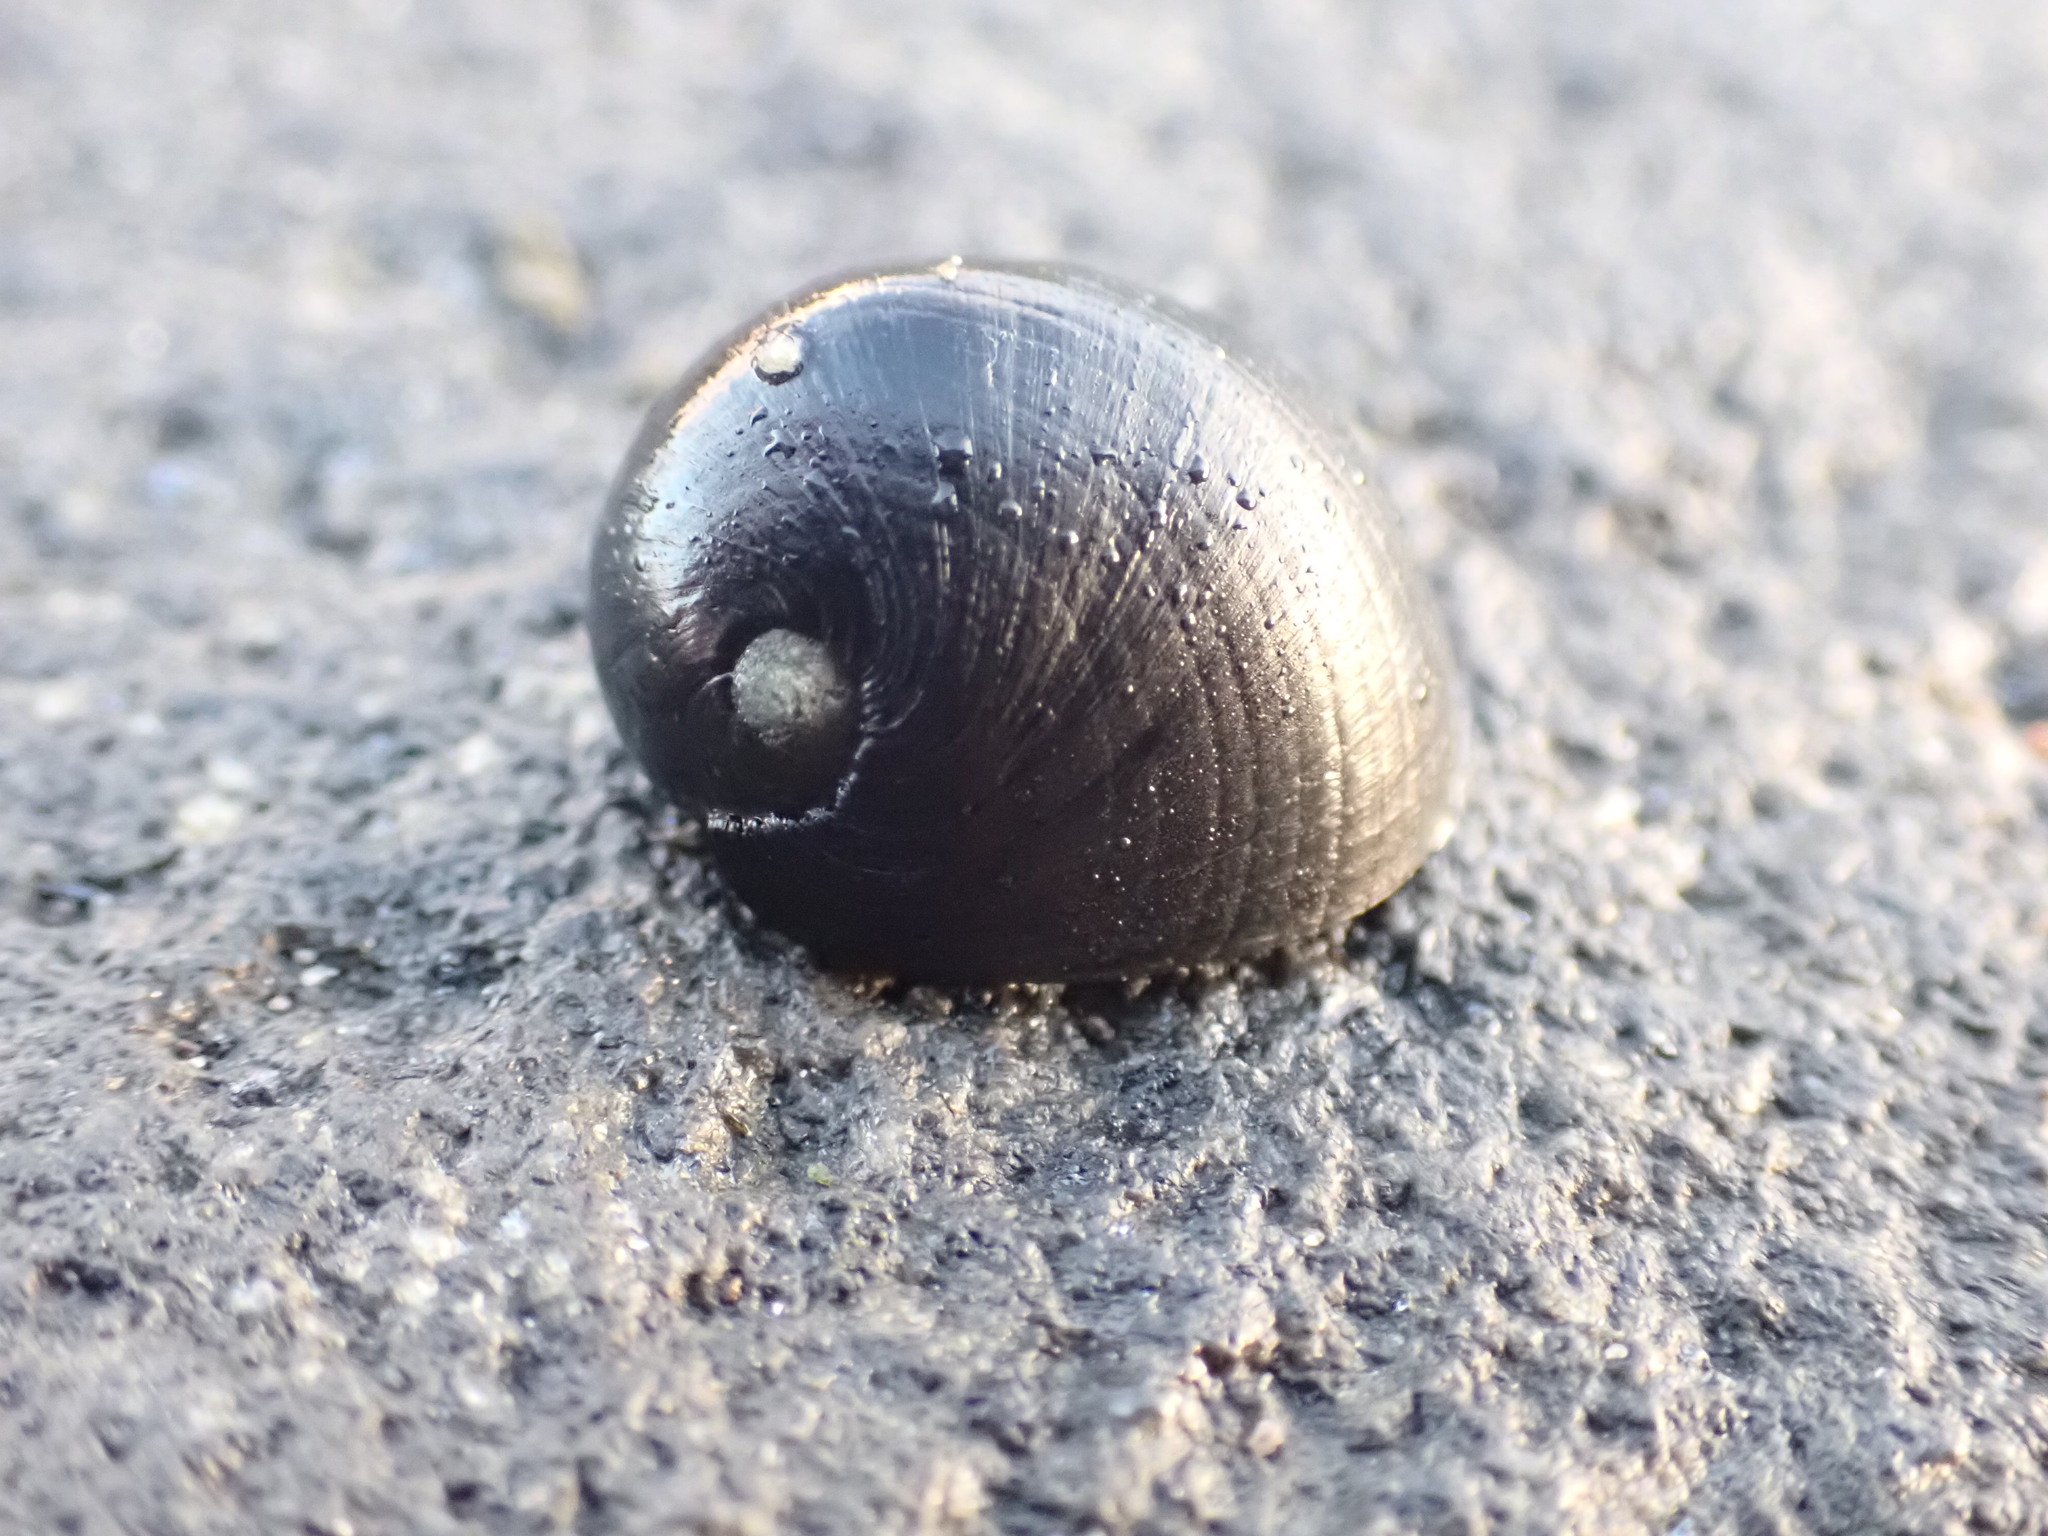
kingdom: Animalia
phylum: Mollusca
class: Gastropoda
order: Cycloneritida
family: Neritidae
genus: Nerita
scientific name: Nerita melanotragus
